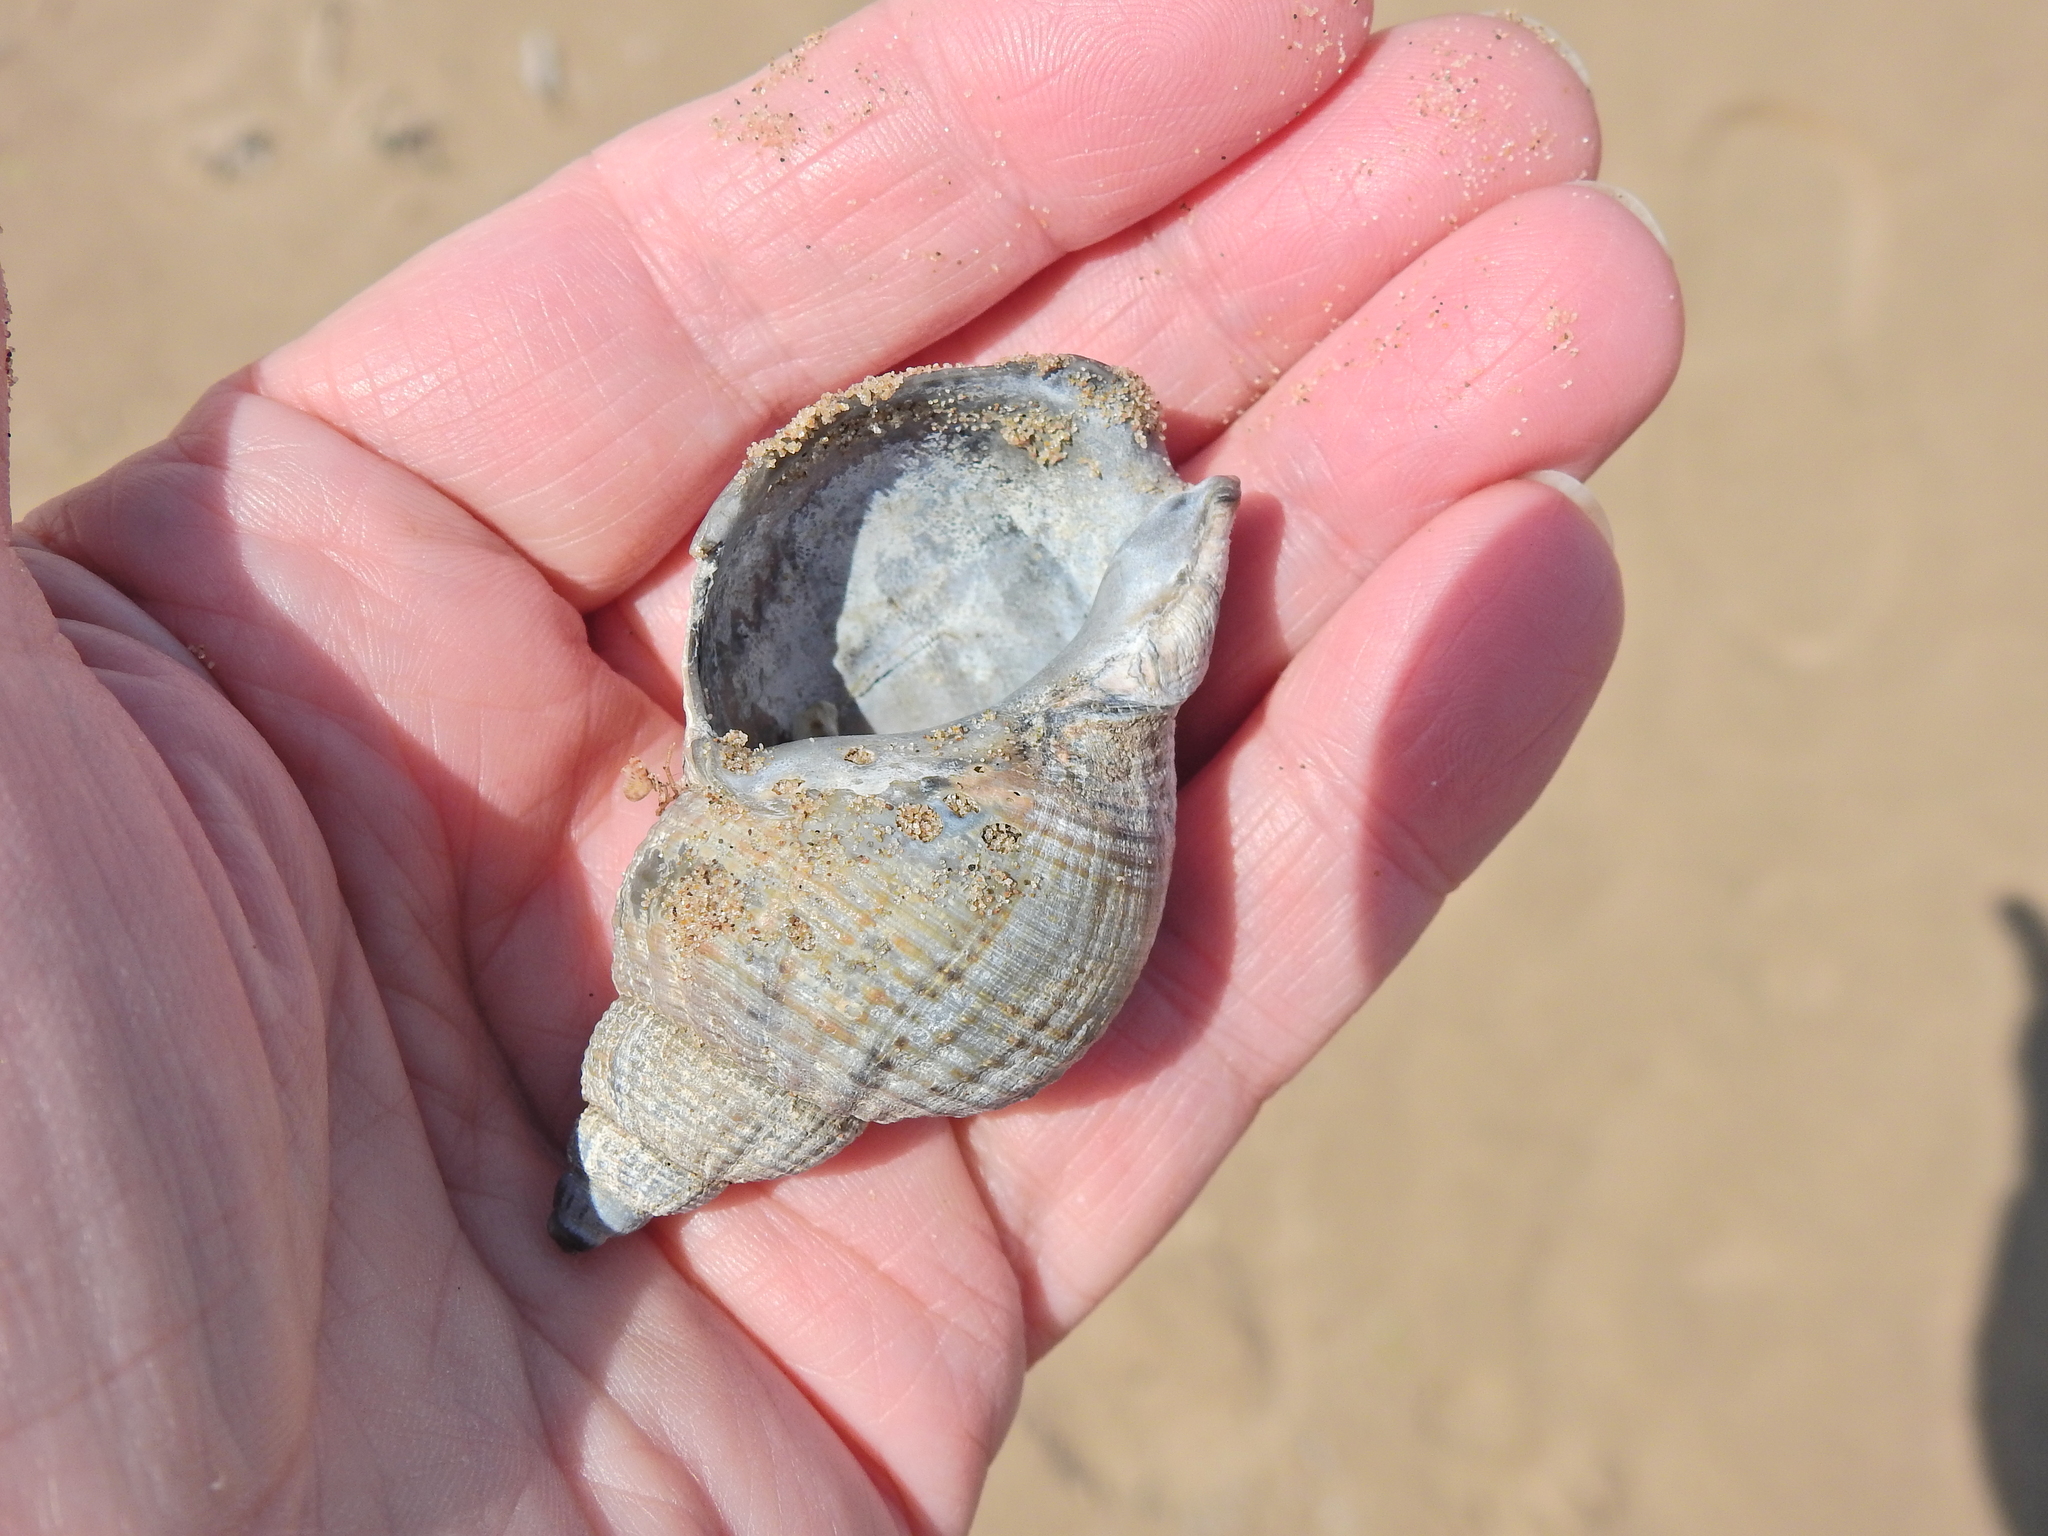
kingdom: Animalia
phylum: Mollusca
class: Gastropoda
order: Neogastropoda
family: Buccinidae
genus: Buccinum
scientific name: Buccinum undatum
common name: Common whelk
